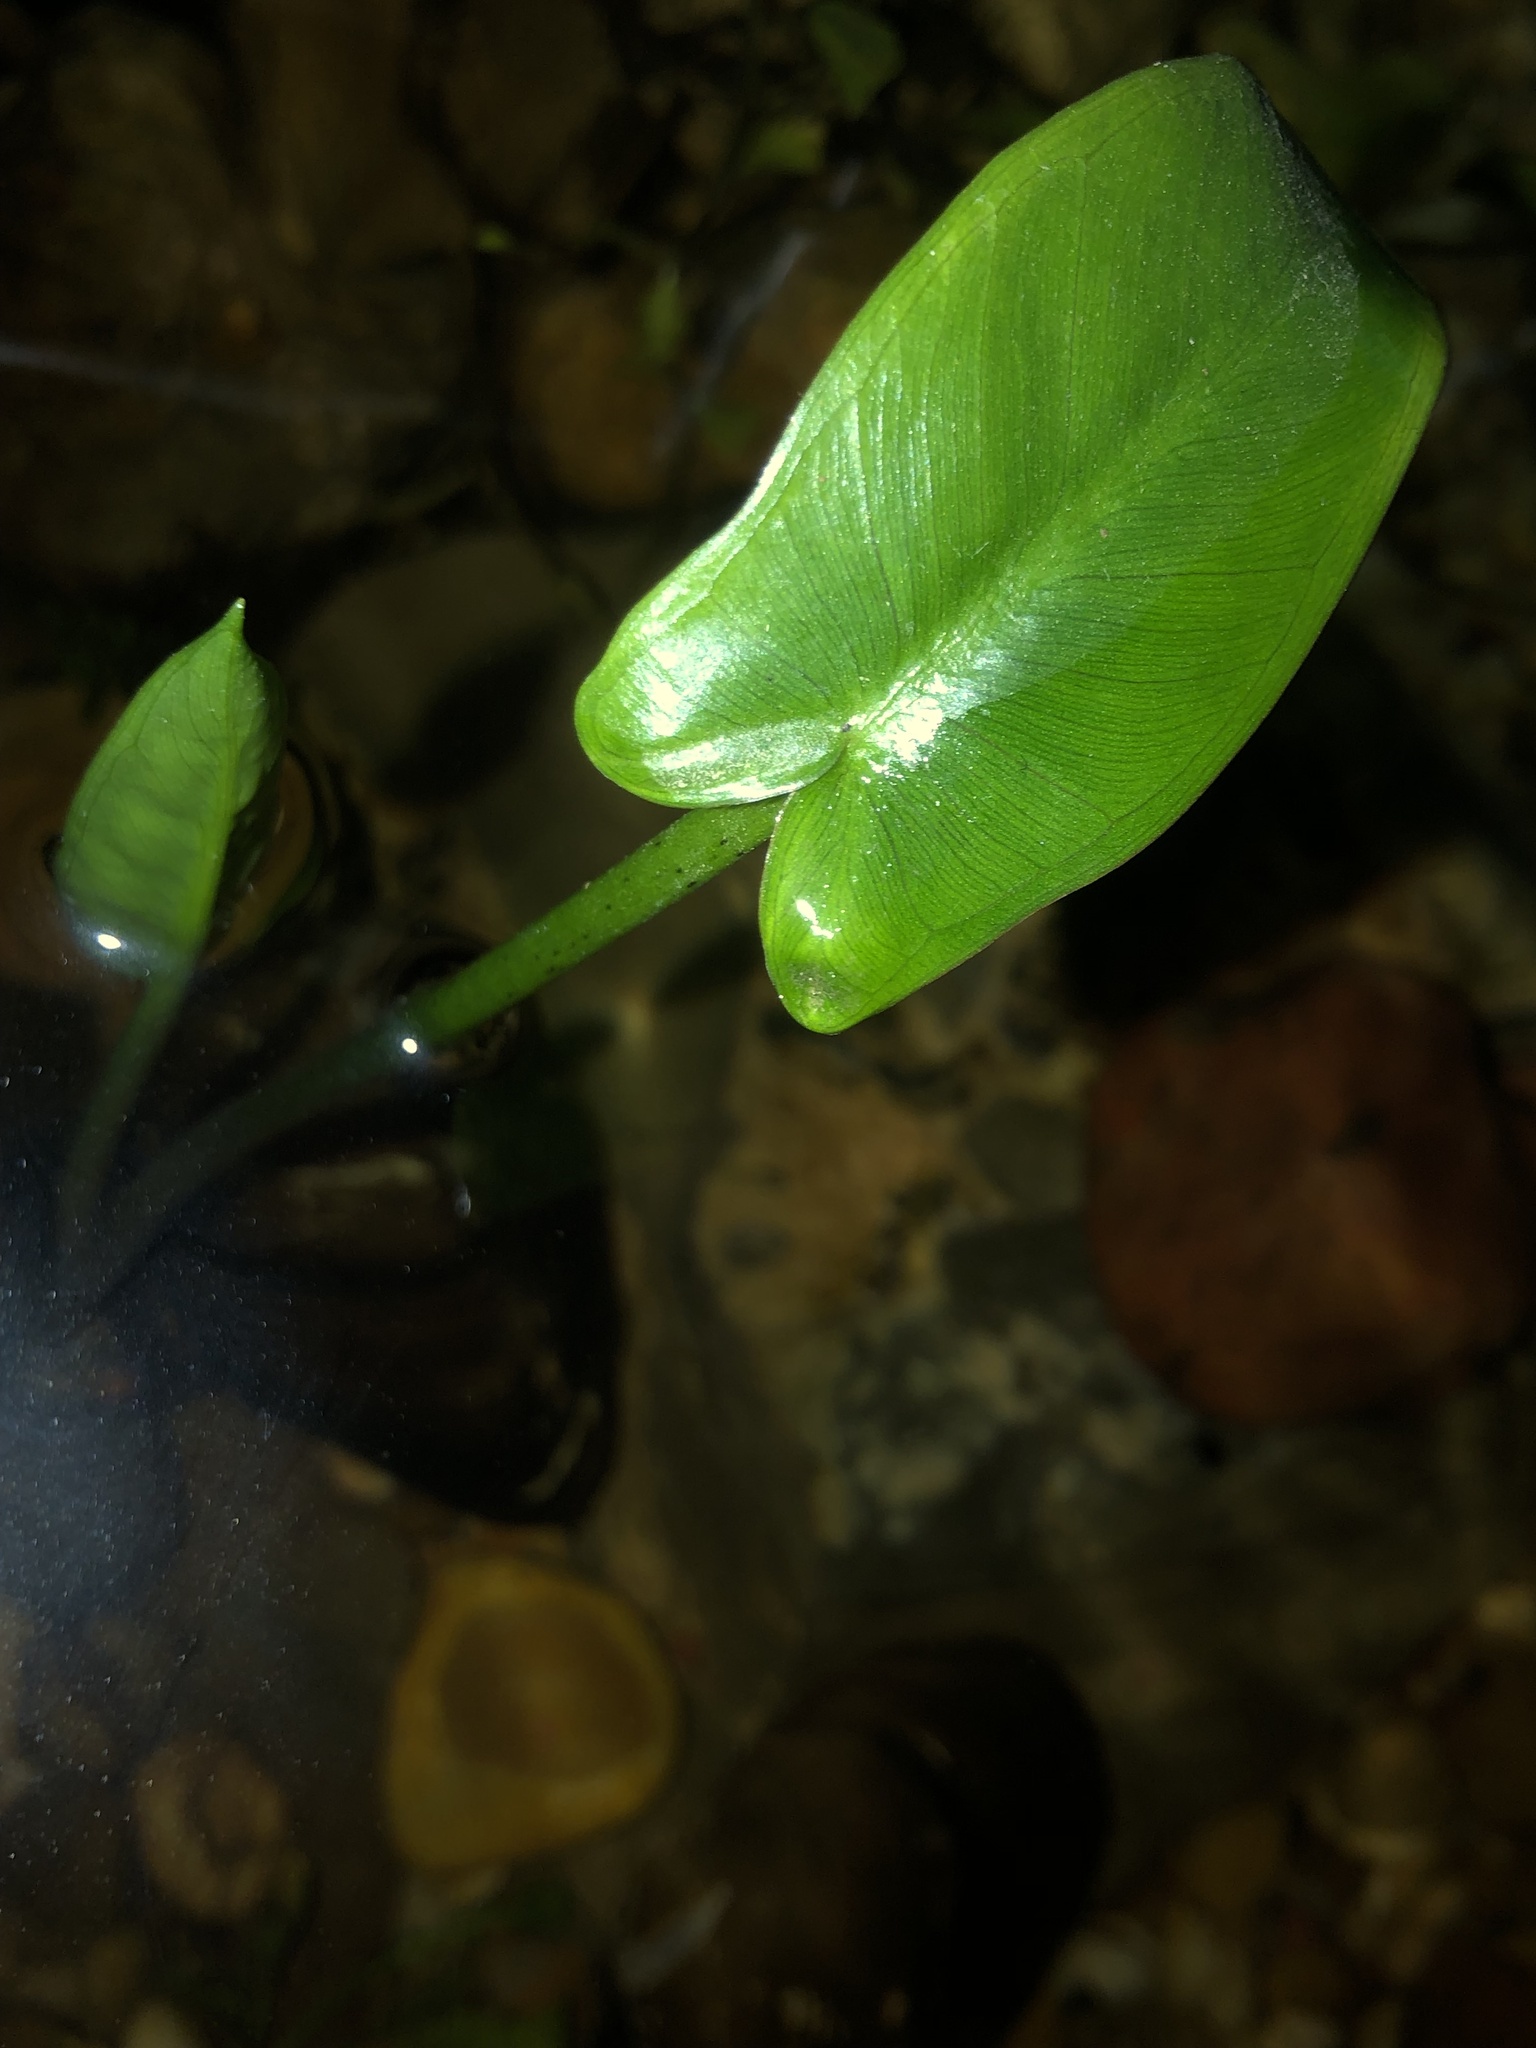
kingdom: Plantae
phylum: Tracheophyta
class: Liliopsida
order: Alismatales
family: Araceae
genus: Peltandra
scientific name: Peltandra virginica
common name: Arrow arum
